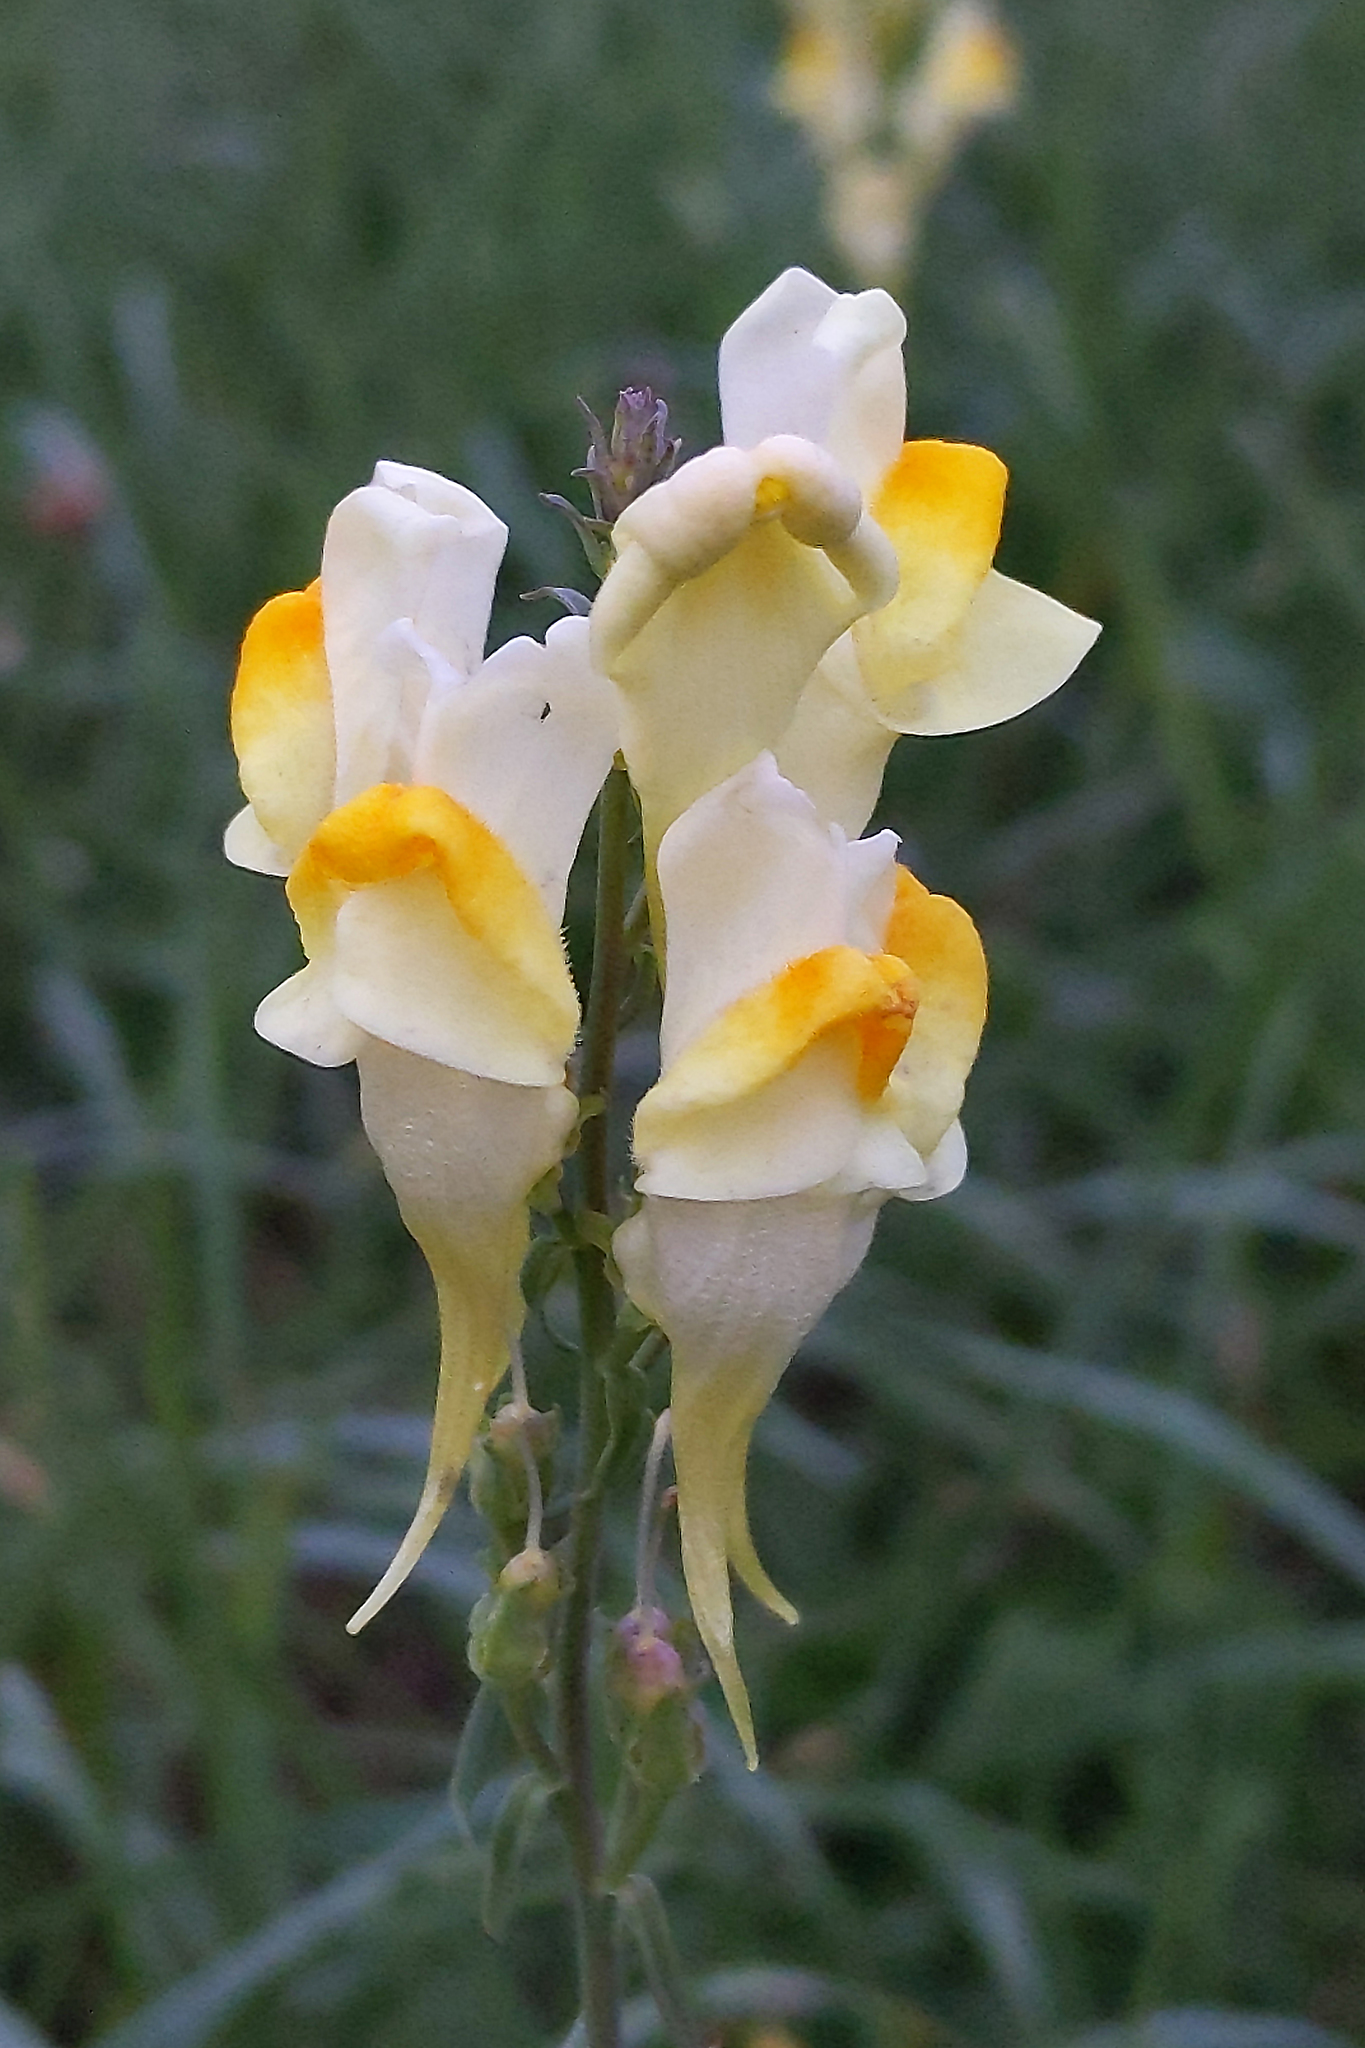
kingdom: Plantae
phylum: Tracheophyta
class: Magnoliopsida
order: Lamiales
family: Plantaginaceae
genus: Linaria
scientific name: Linaria vulgaris
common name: Butter and eggs
